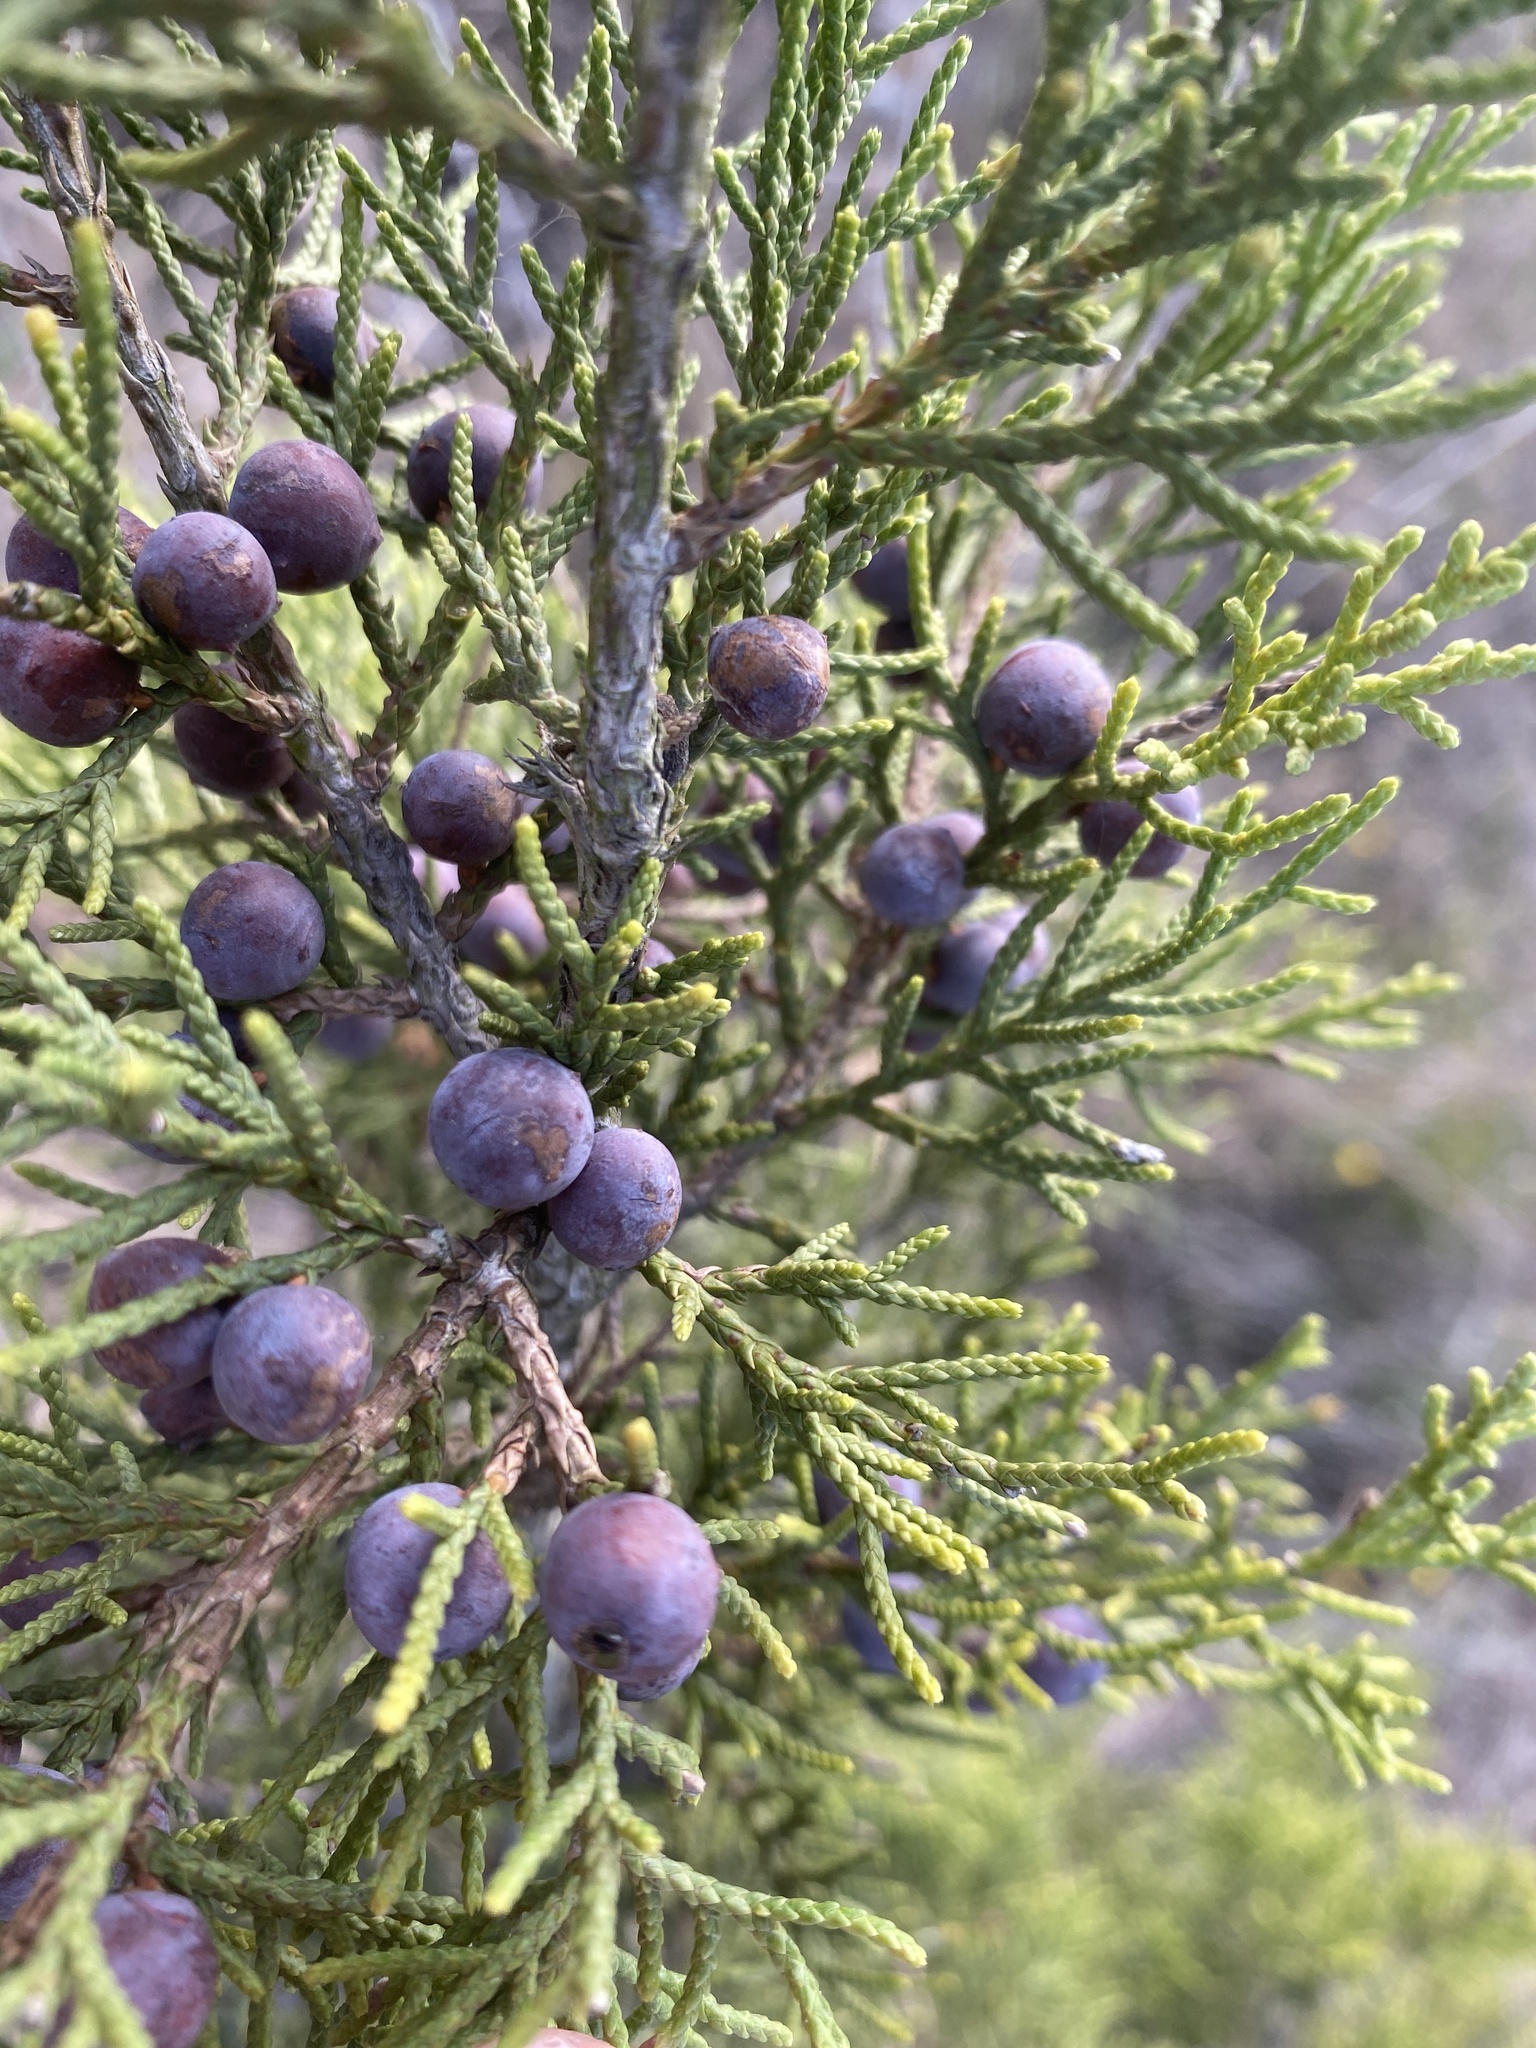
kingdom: Plantae
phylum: Tracheophyta
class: Pinopsida
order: Pinales
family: Cupressaceae
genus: Juniperus
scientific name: Juniperus ashei
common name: Mexican juniper
